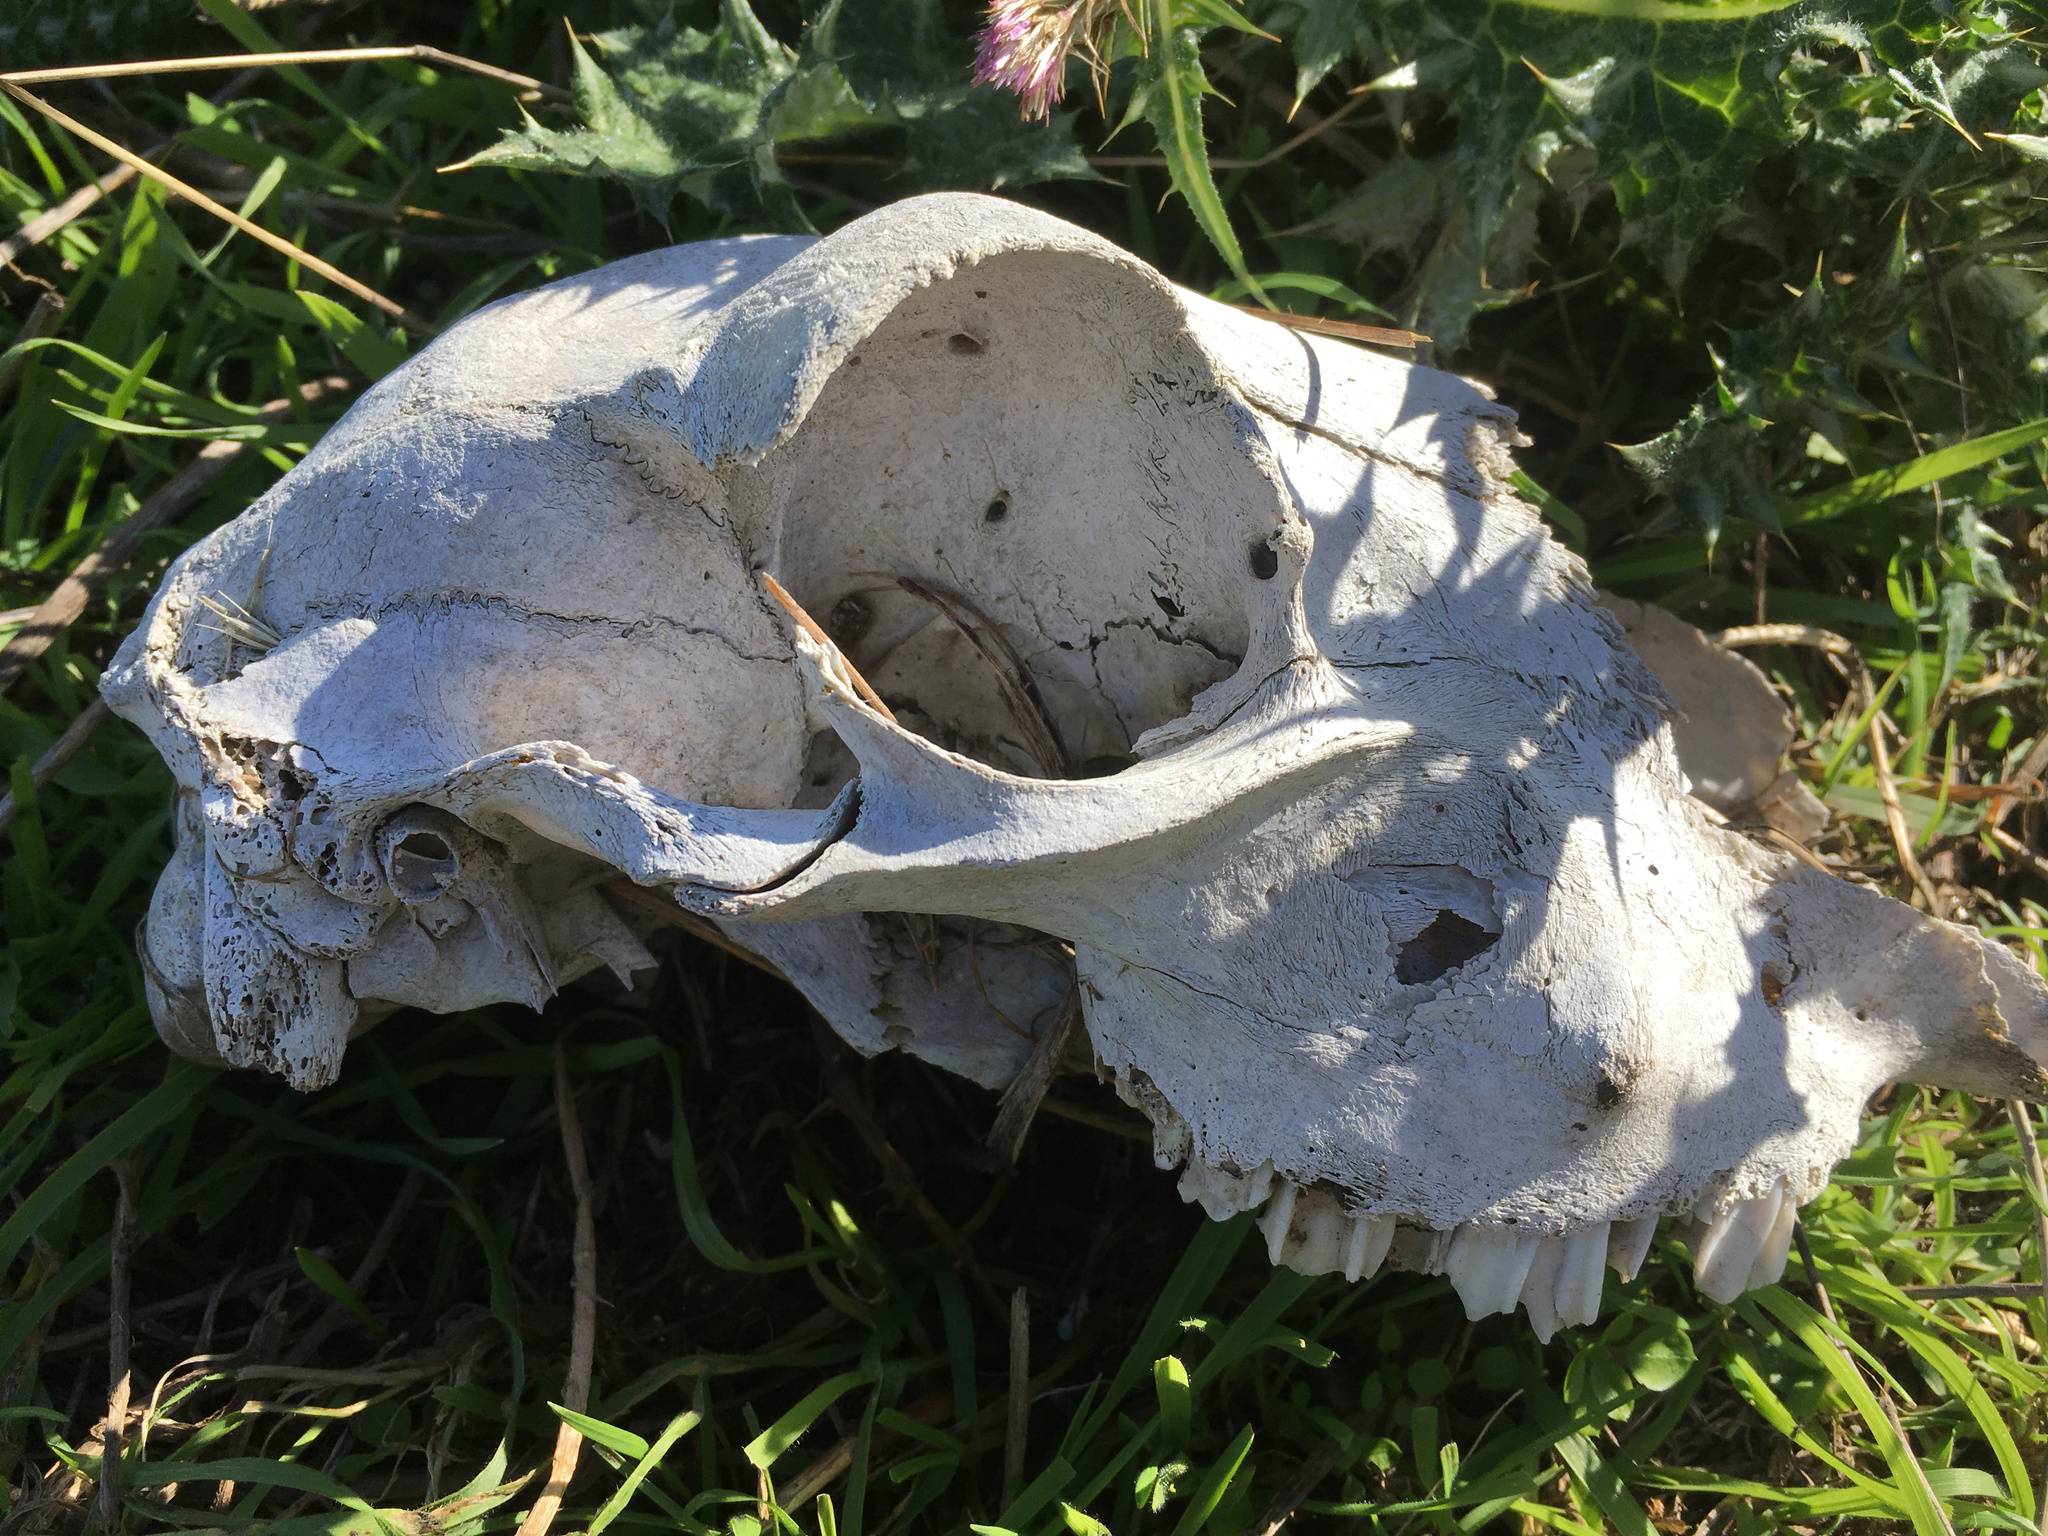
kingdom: Animalia
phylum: Chordata
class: Mammalia
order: Artiodactyla
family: Bovidae
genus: Ovis
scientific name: Ovis aries
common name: Domestic sheep
